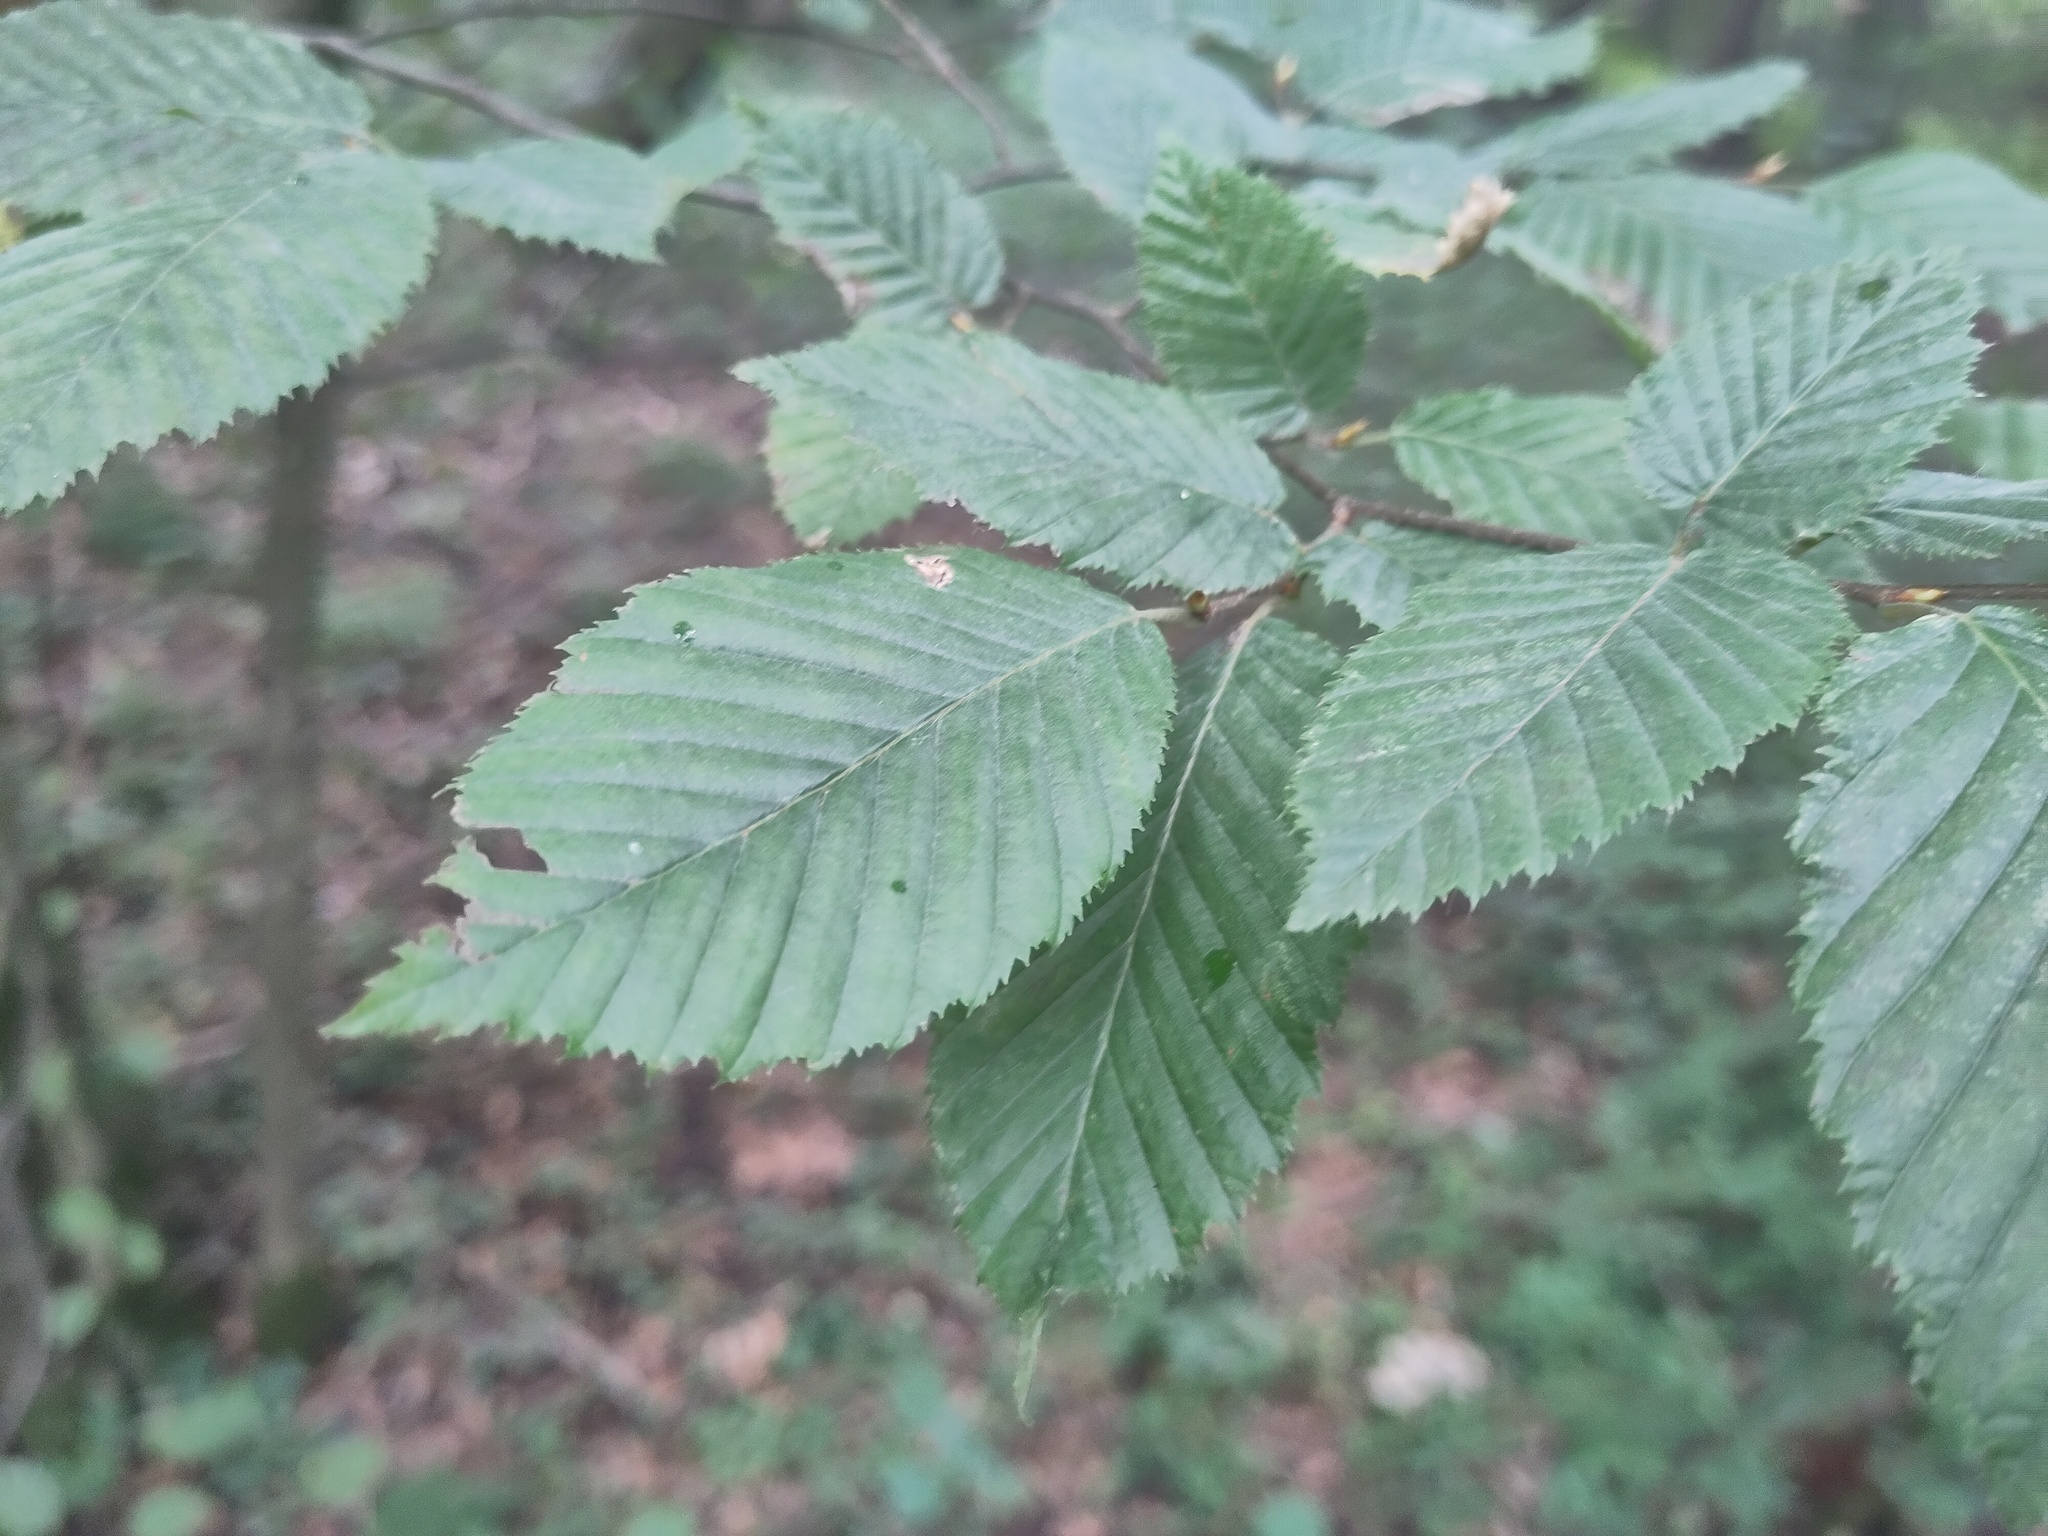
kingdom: Plantae
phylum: Tracheophyta
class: Magnoliopsida
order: Fagales
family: Betulaceae
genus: Carpinus
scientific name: Carpinus betulus
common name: Hornbeam
